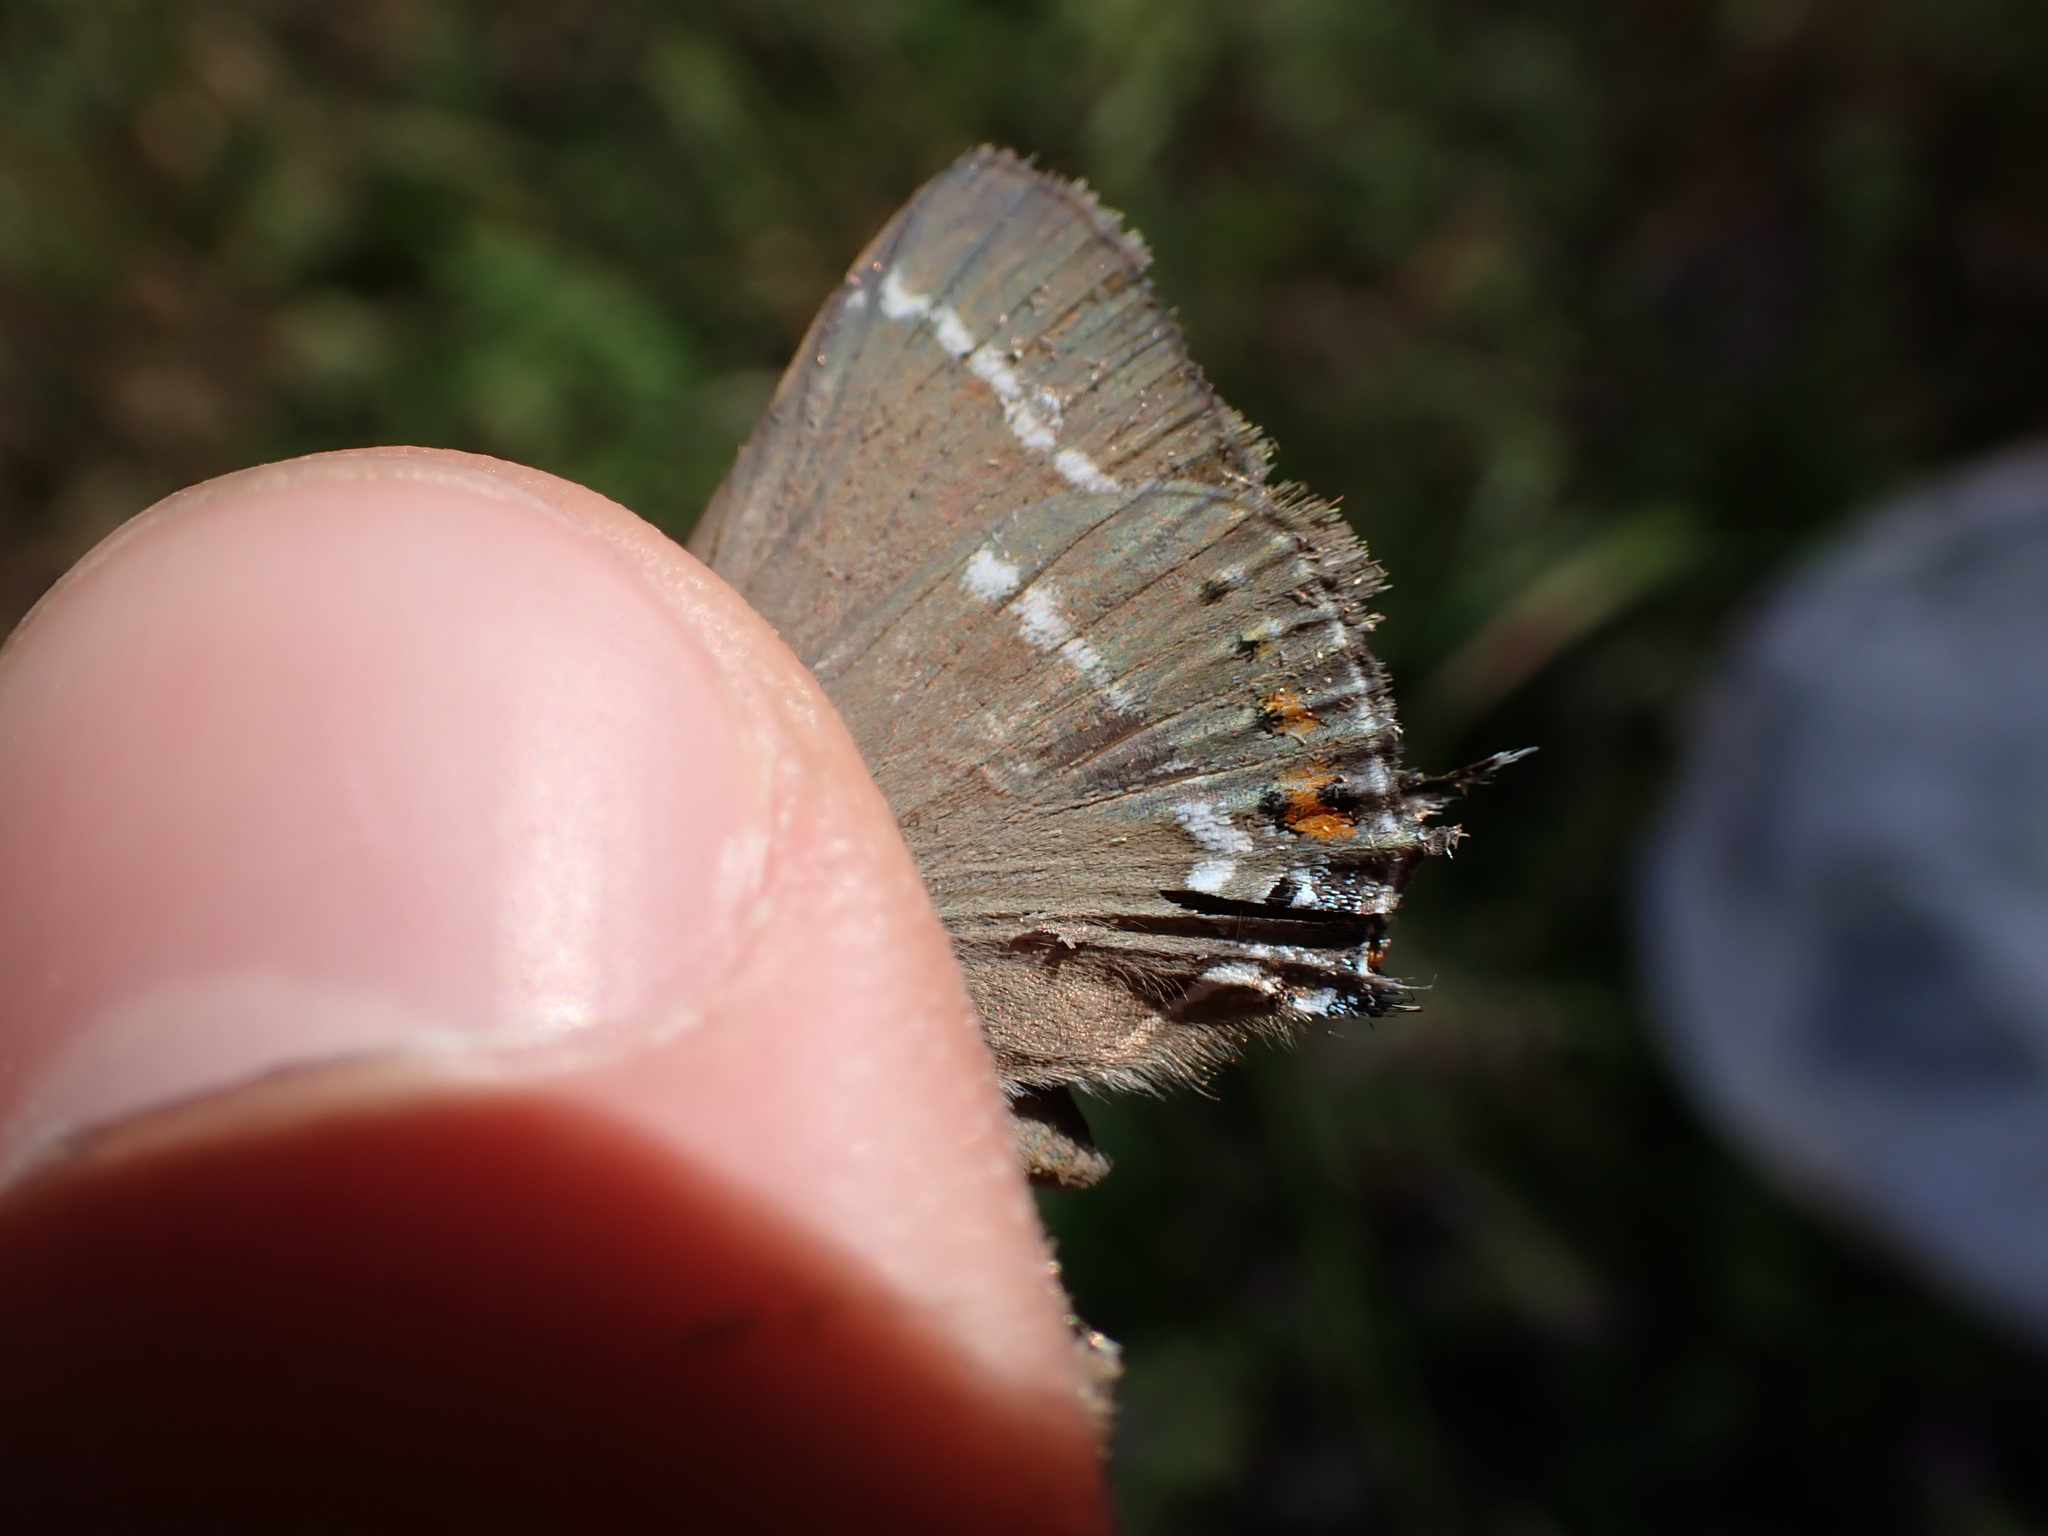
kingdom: Animalia
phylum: Arthropoda
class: Insecta
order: Lepidoptera
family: Lycaenidae
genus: Tuttiola
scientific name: Tuttiola spini
